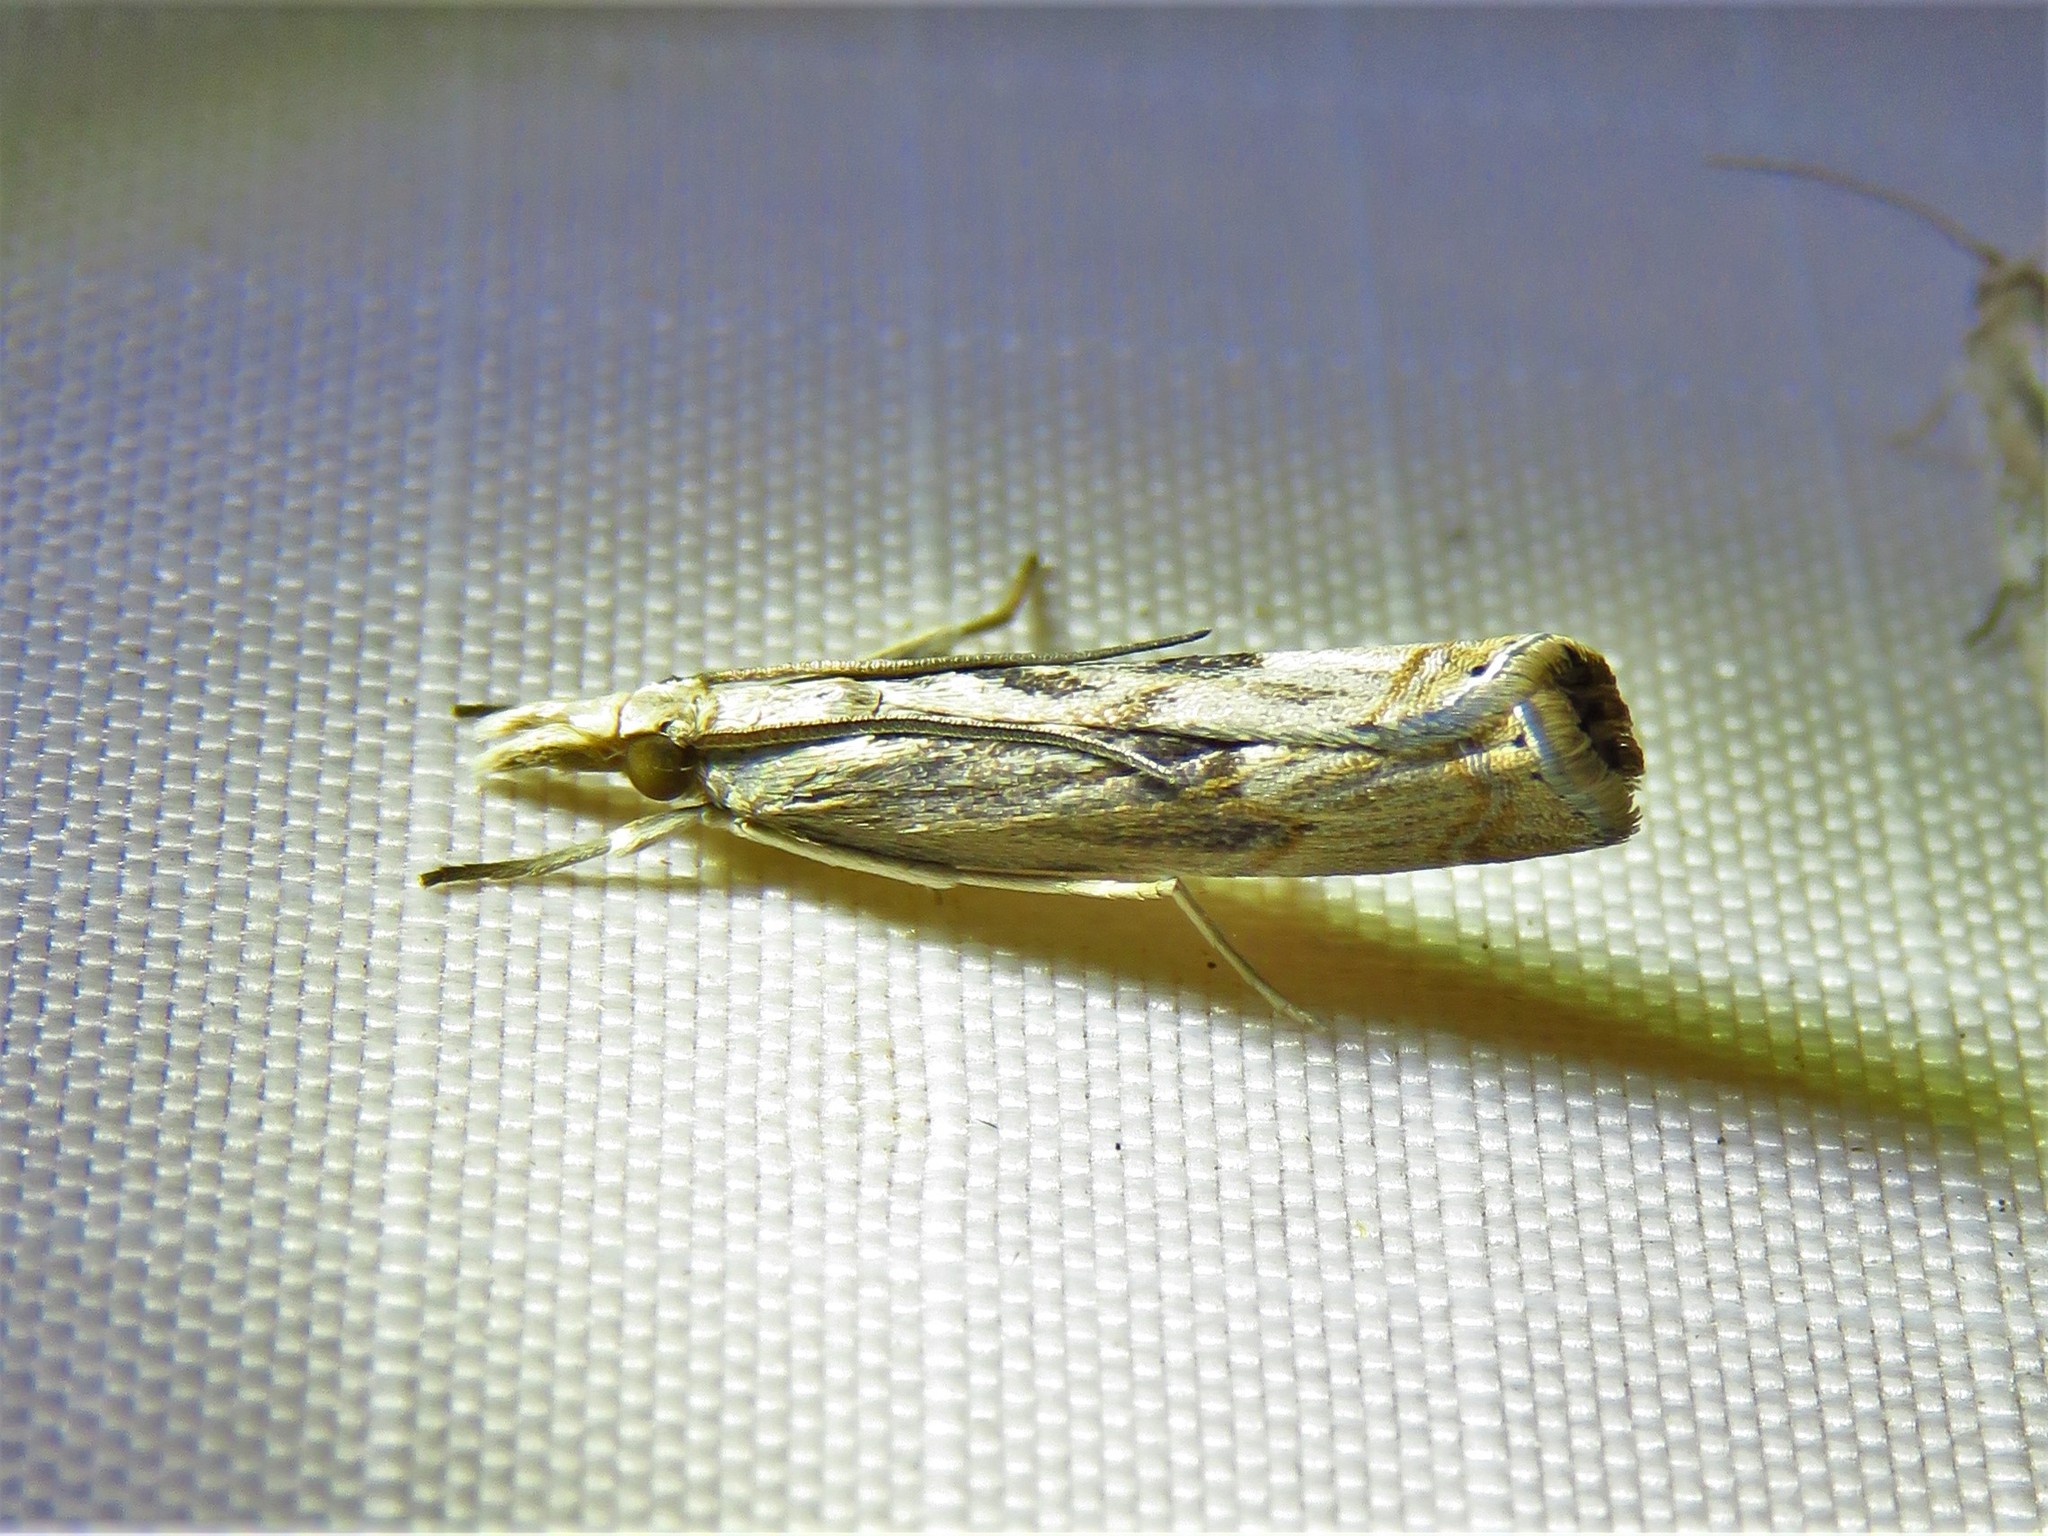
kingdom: Animalia
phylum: Arthropoda
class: Insecta
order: Lepidoptera
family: Crambidae
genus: Parapediasia
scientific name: Parapediasia teterellus
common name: Bluegrass webworm moth
